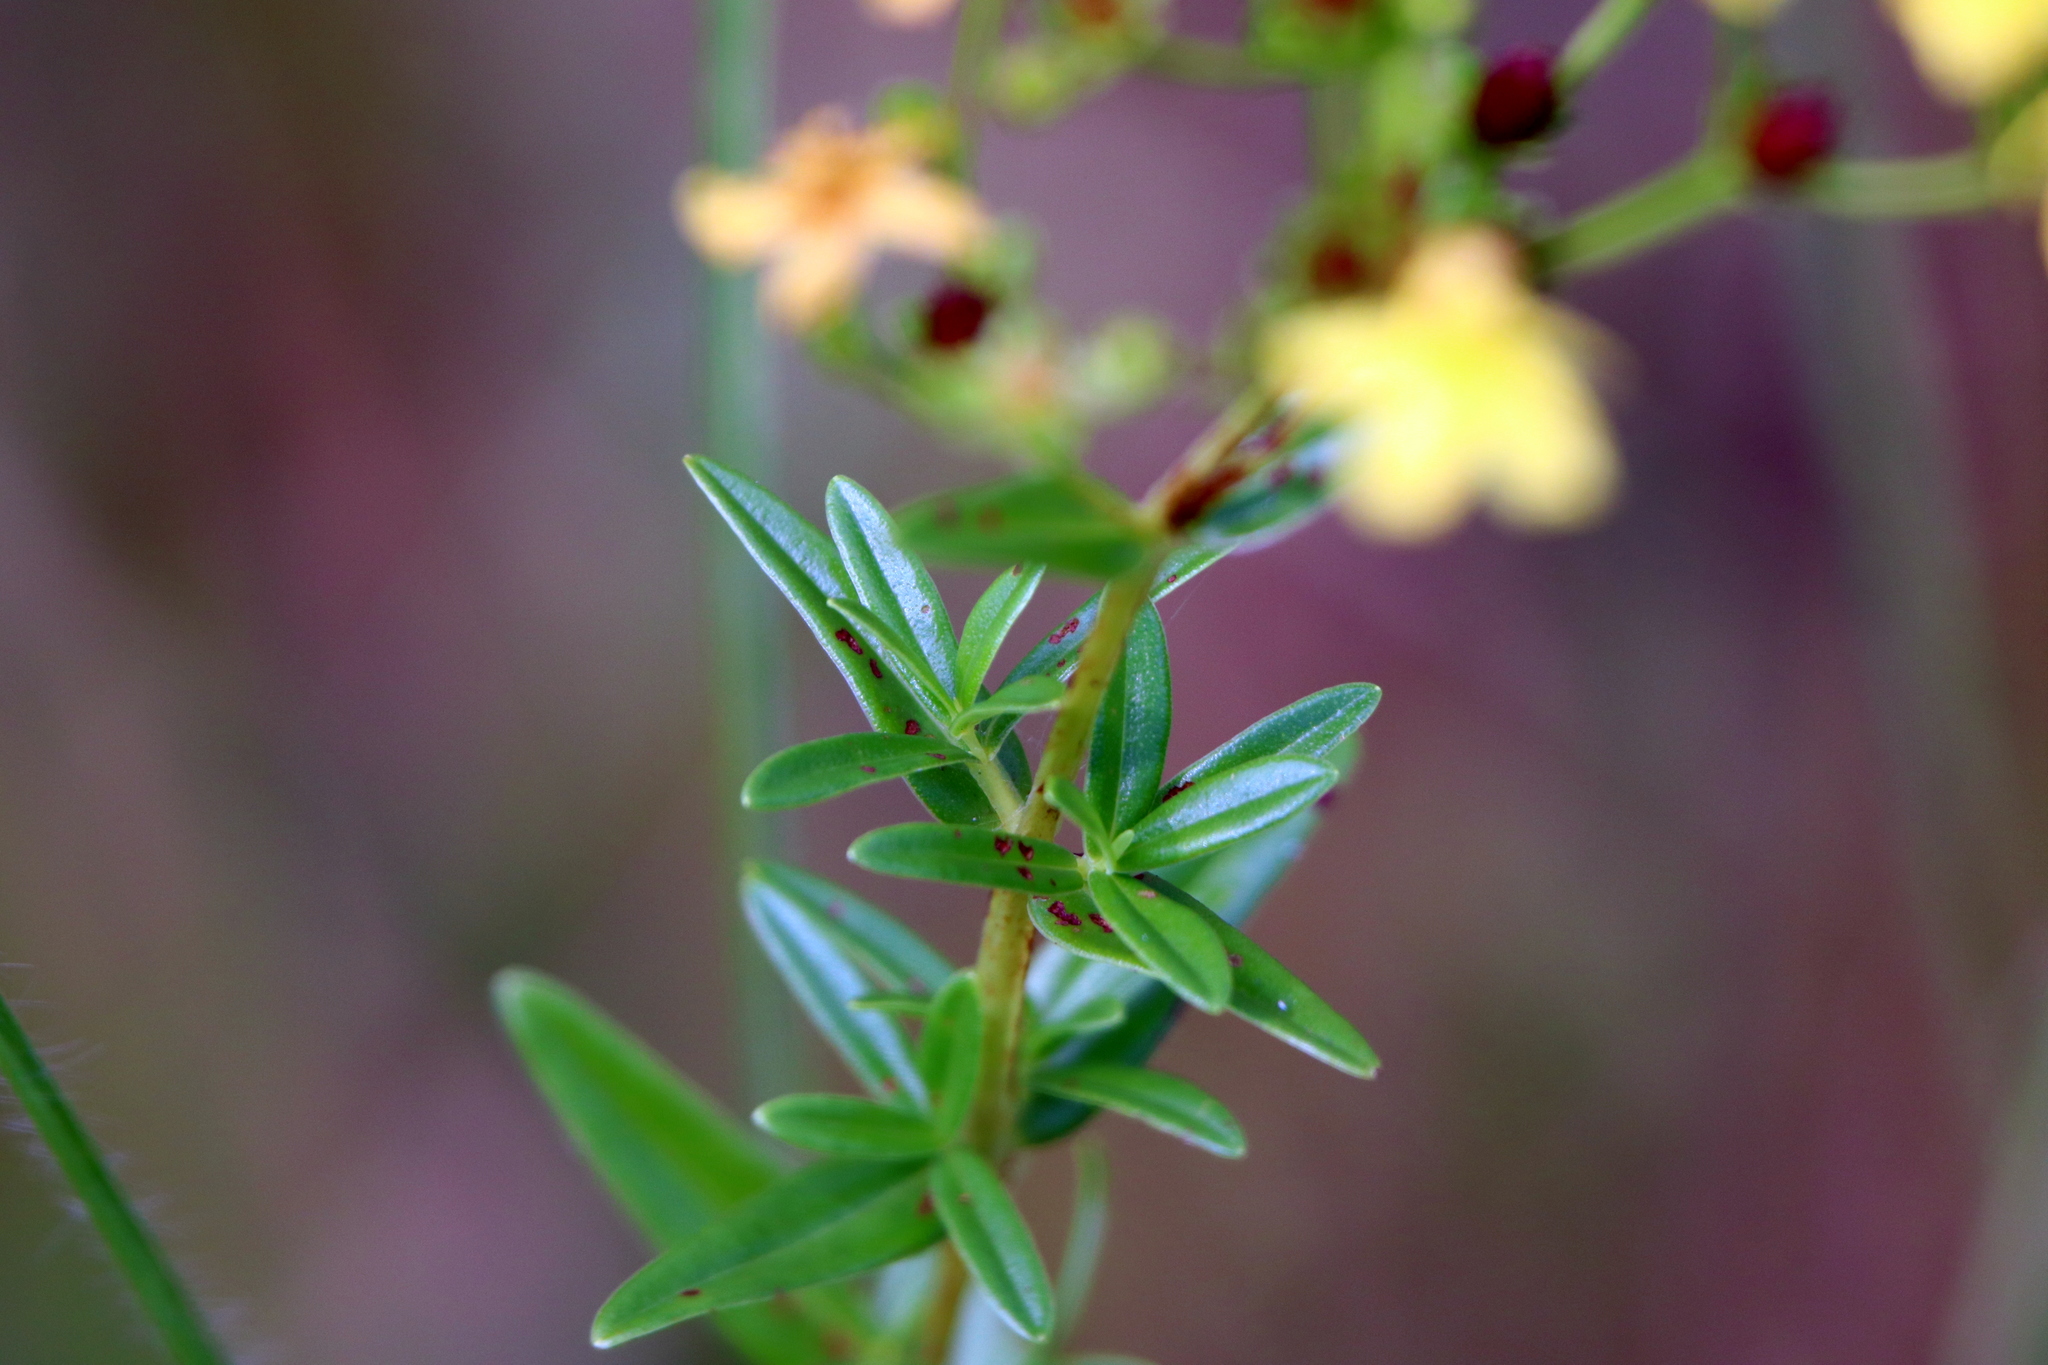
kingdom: Plantae
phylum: Tracheophyta
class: Magnoliopsida
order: Malpighiales
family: Hypericaceae
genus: Hypericum
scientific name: Hypericum cistifolium
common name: Round-pod st. john's-wort
